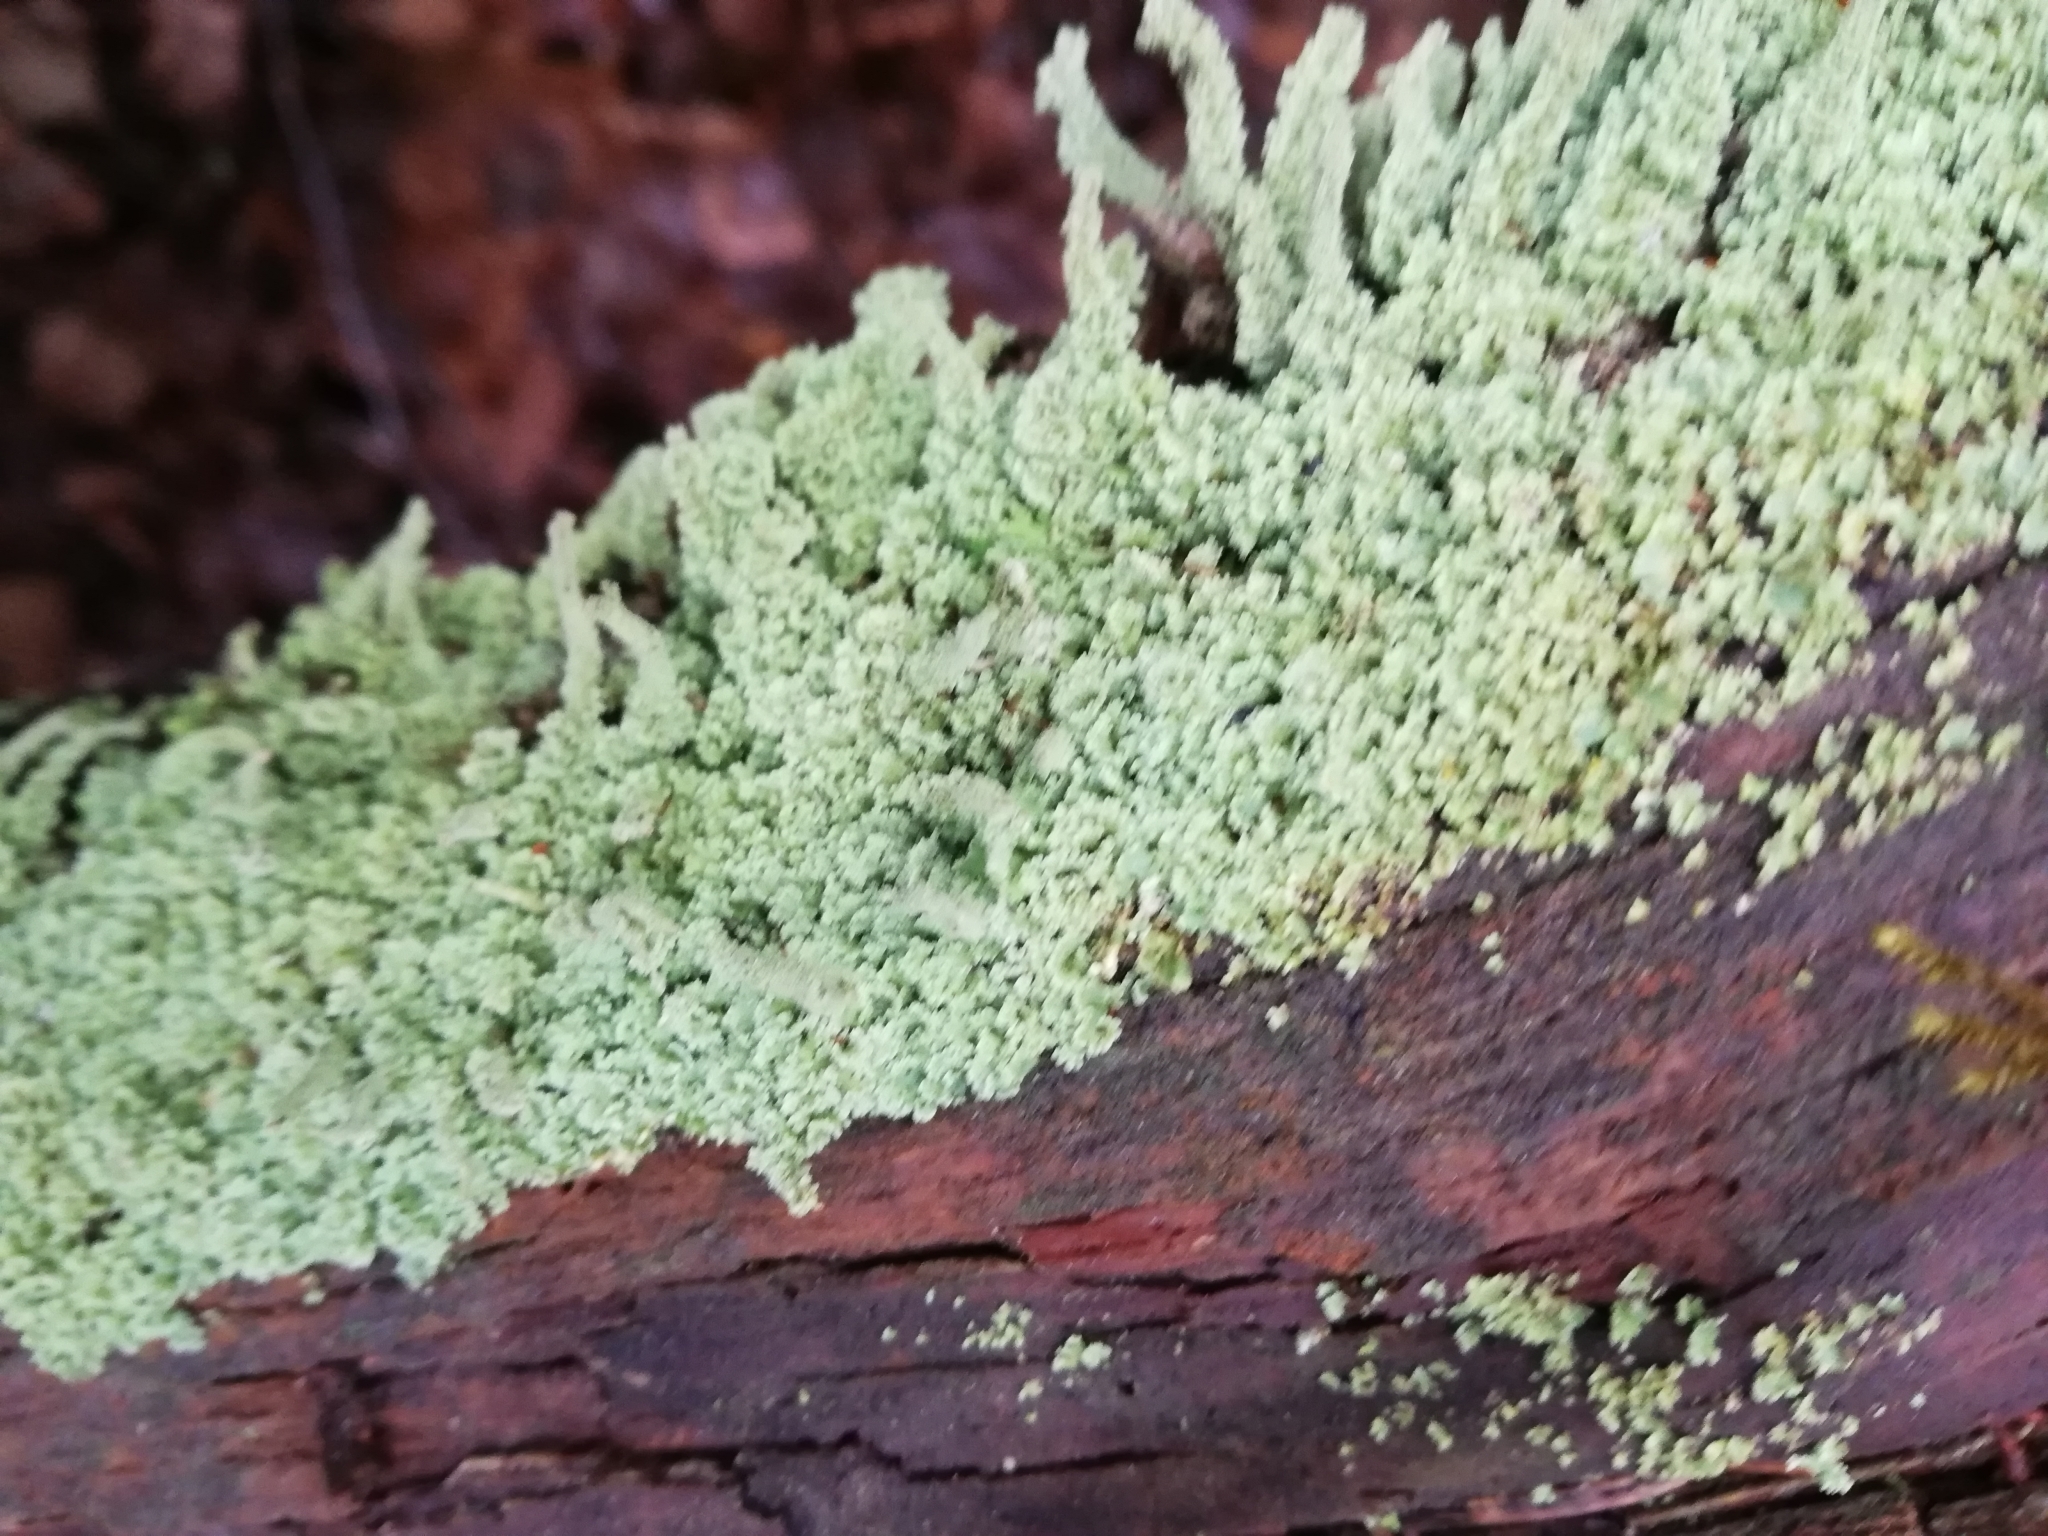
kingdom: Fungi
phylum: Ascomycota
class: Lecanoromycetes
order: Lecanorales
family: Cladoniaceae
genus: Cladonia
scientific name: Cladonia squamosa
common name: Dragon horn
